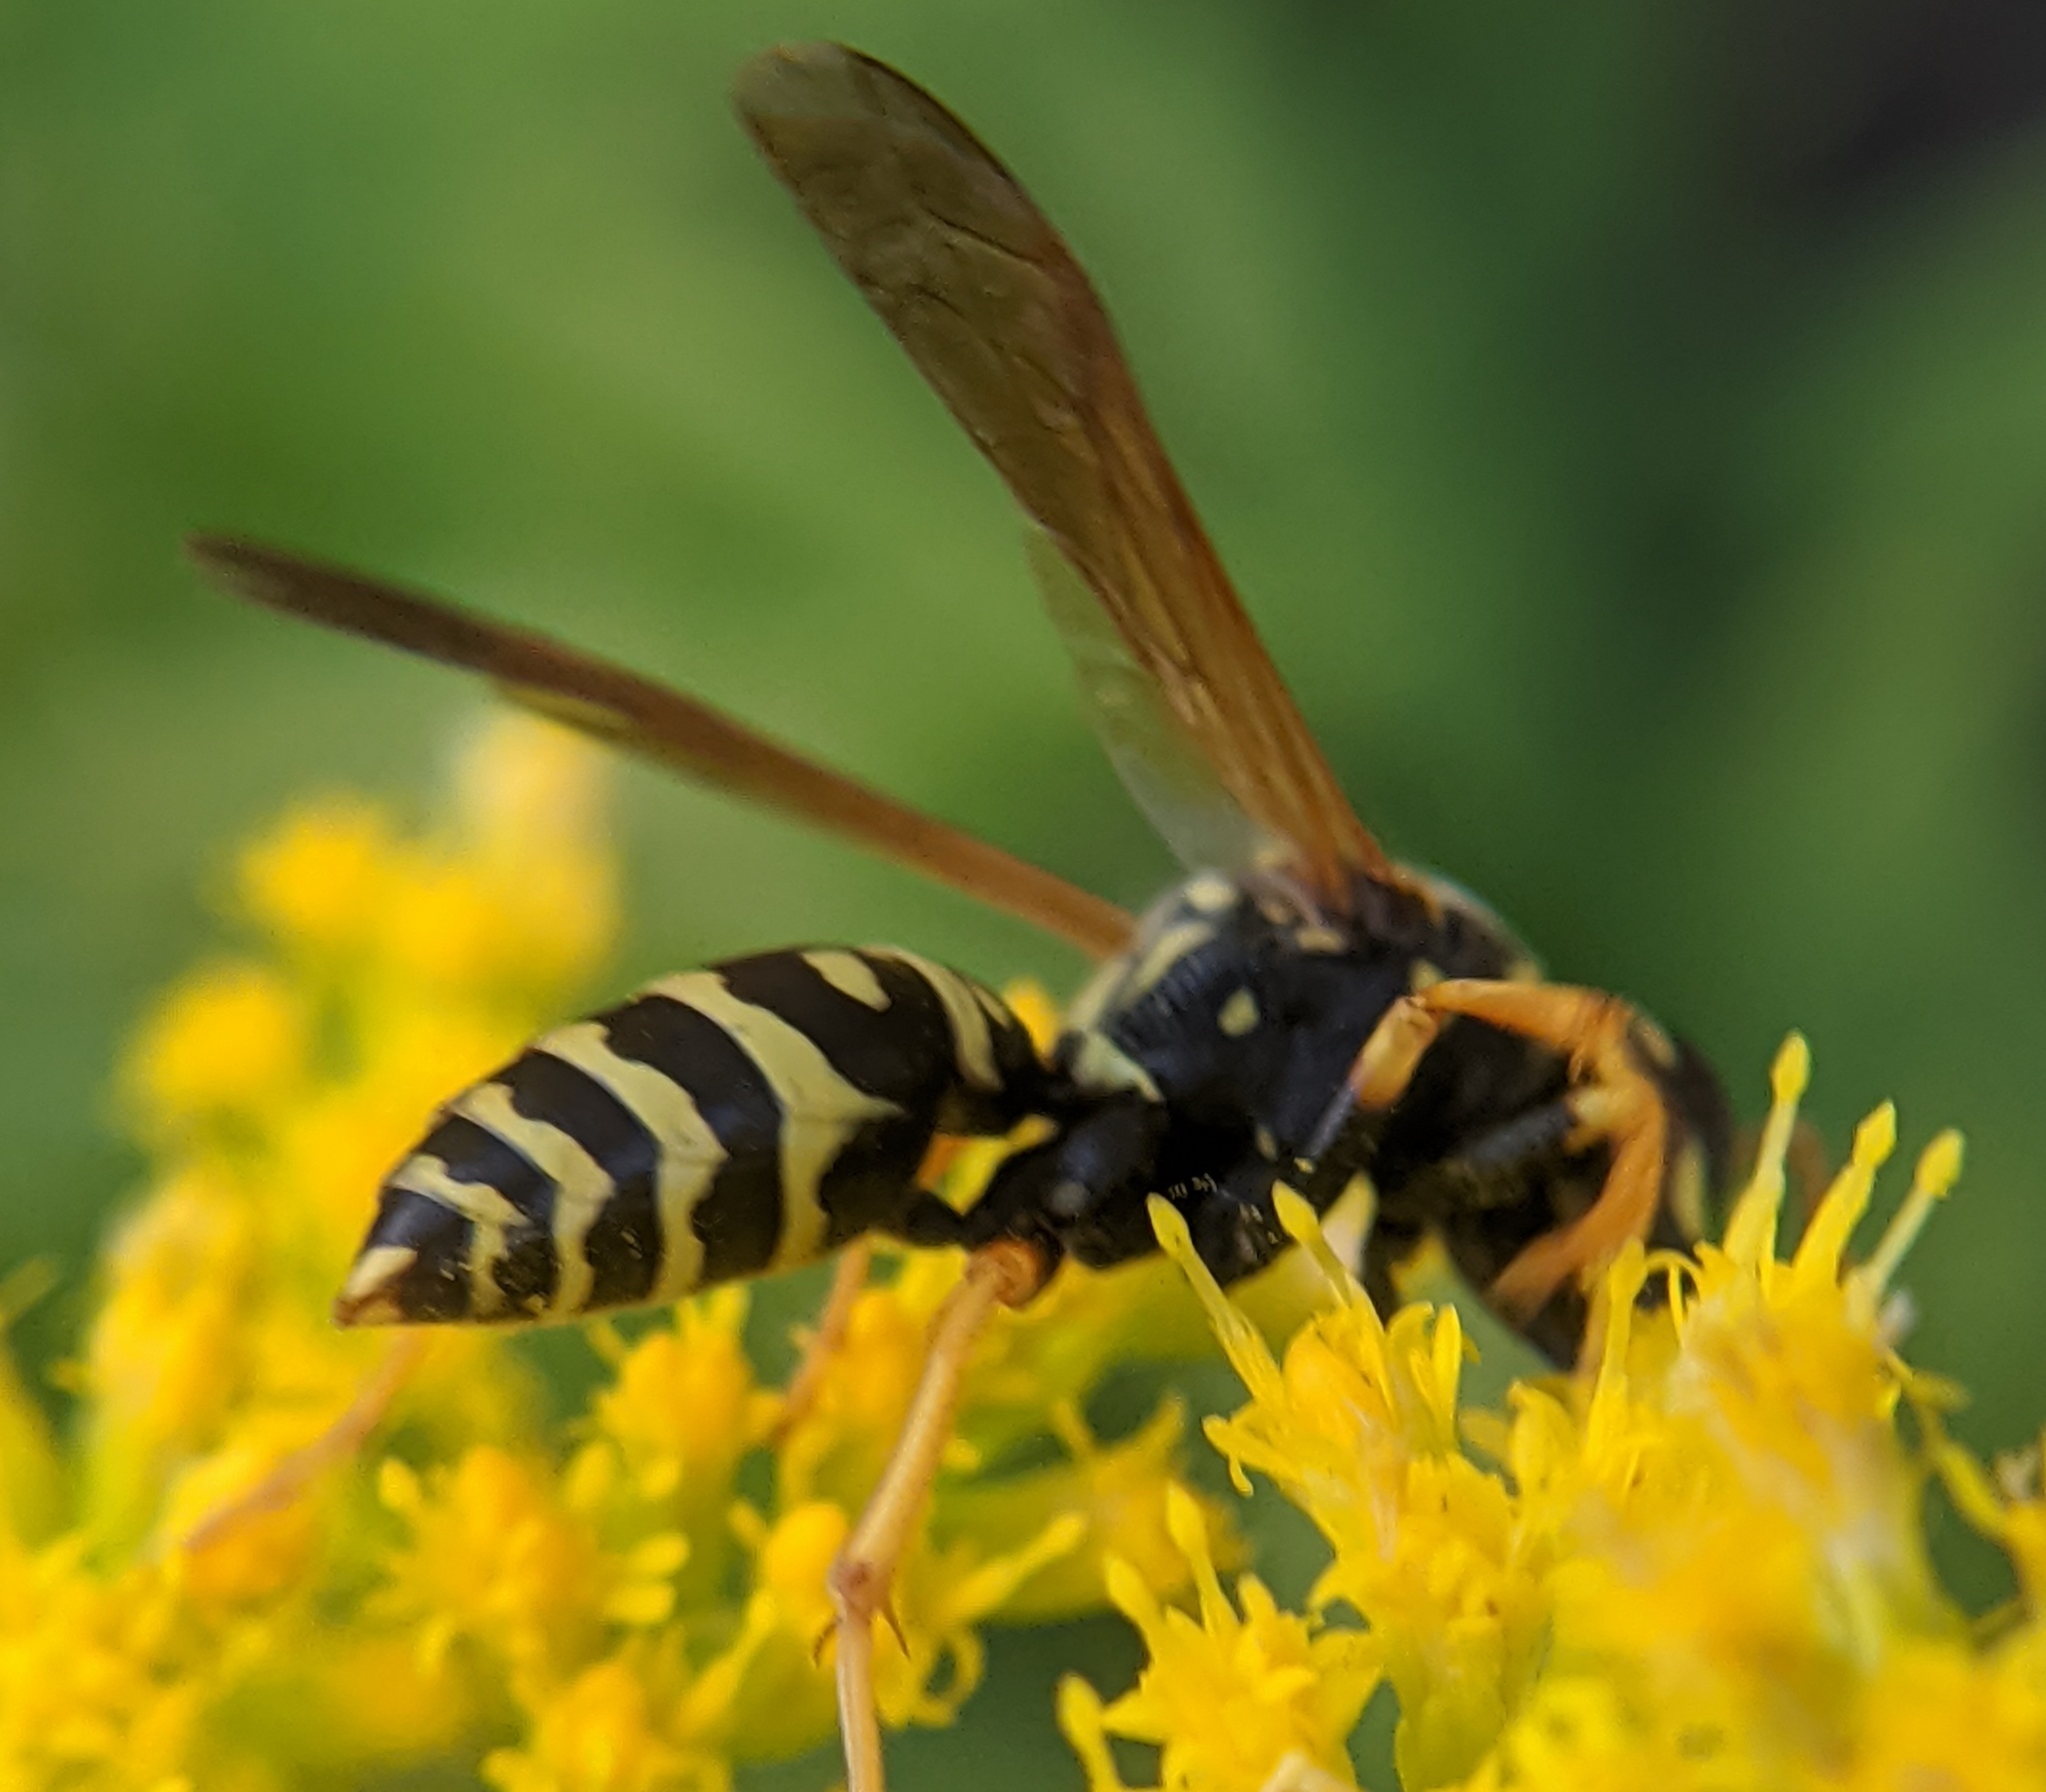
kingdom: Animalia
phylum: Arthropoda
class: Insecta
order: Hymenoptera
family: Eumenidae
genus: Polistes
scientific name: Polistes dominula
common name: Paper wasp
